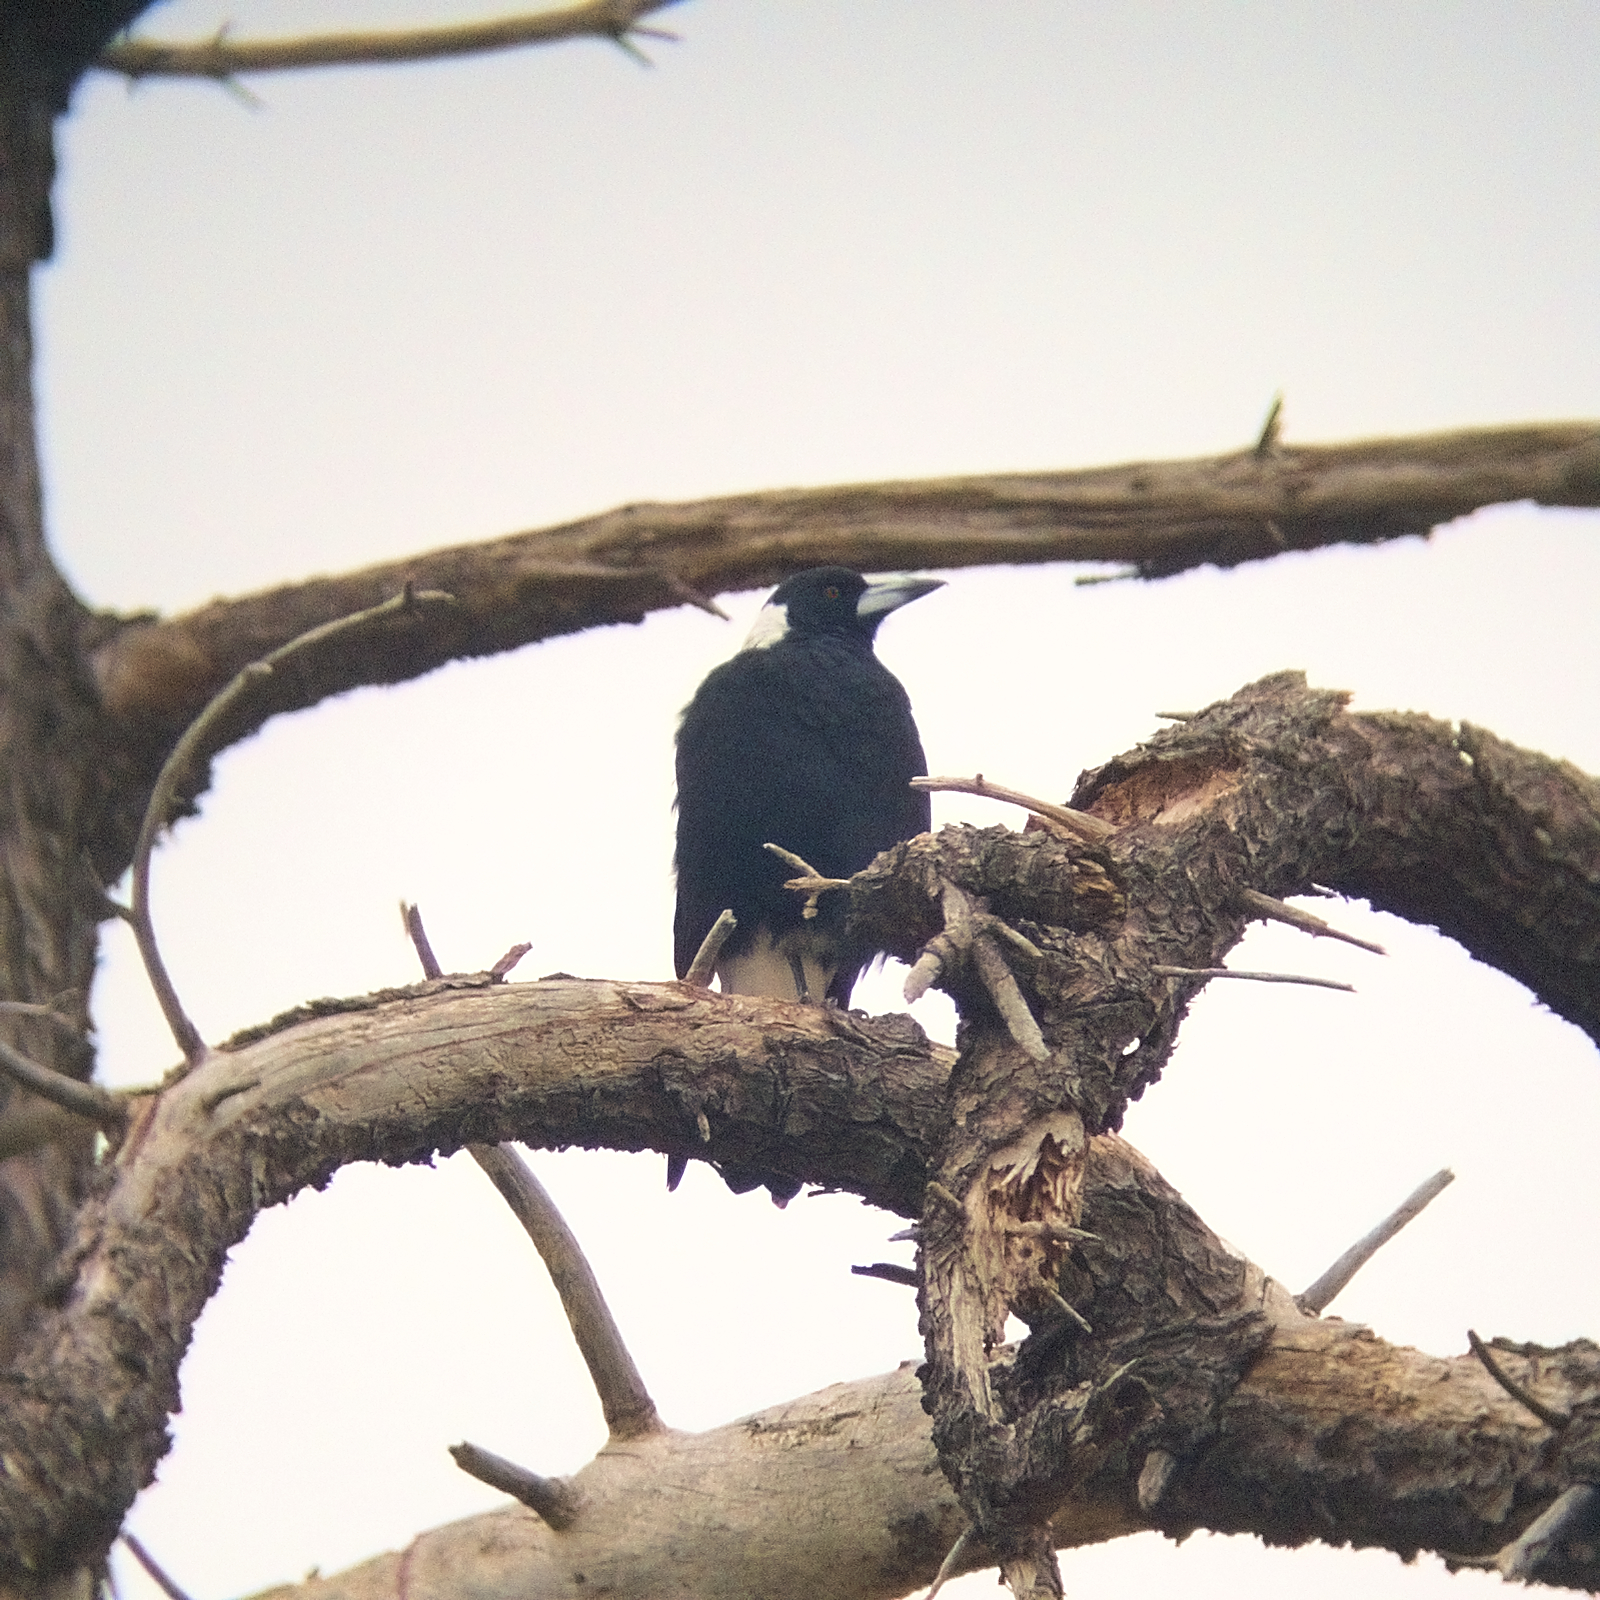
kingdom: Animalia
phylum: Chordata
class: Aves
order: Passeriformes
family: Cracticidae
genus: Gymnorhina
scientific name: Gymnorhina tibicen
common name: Australian magpie
